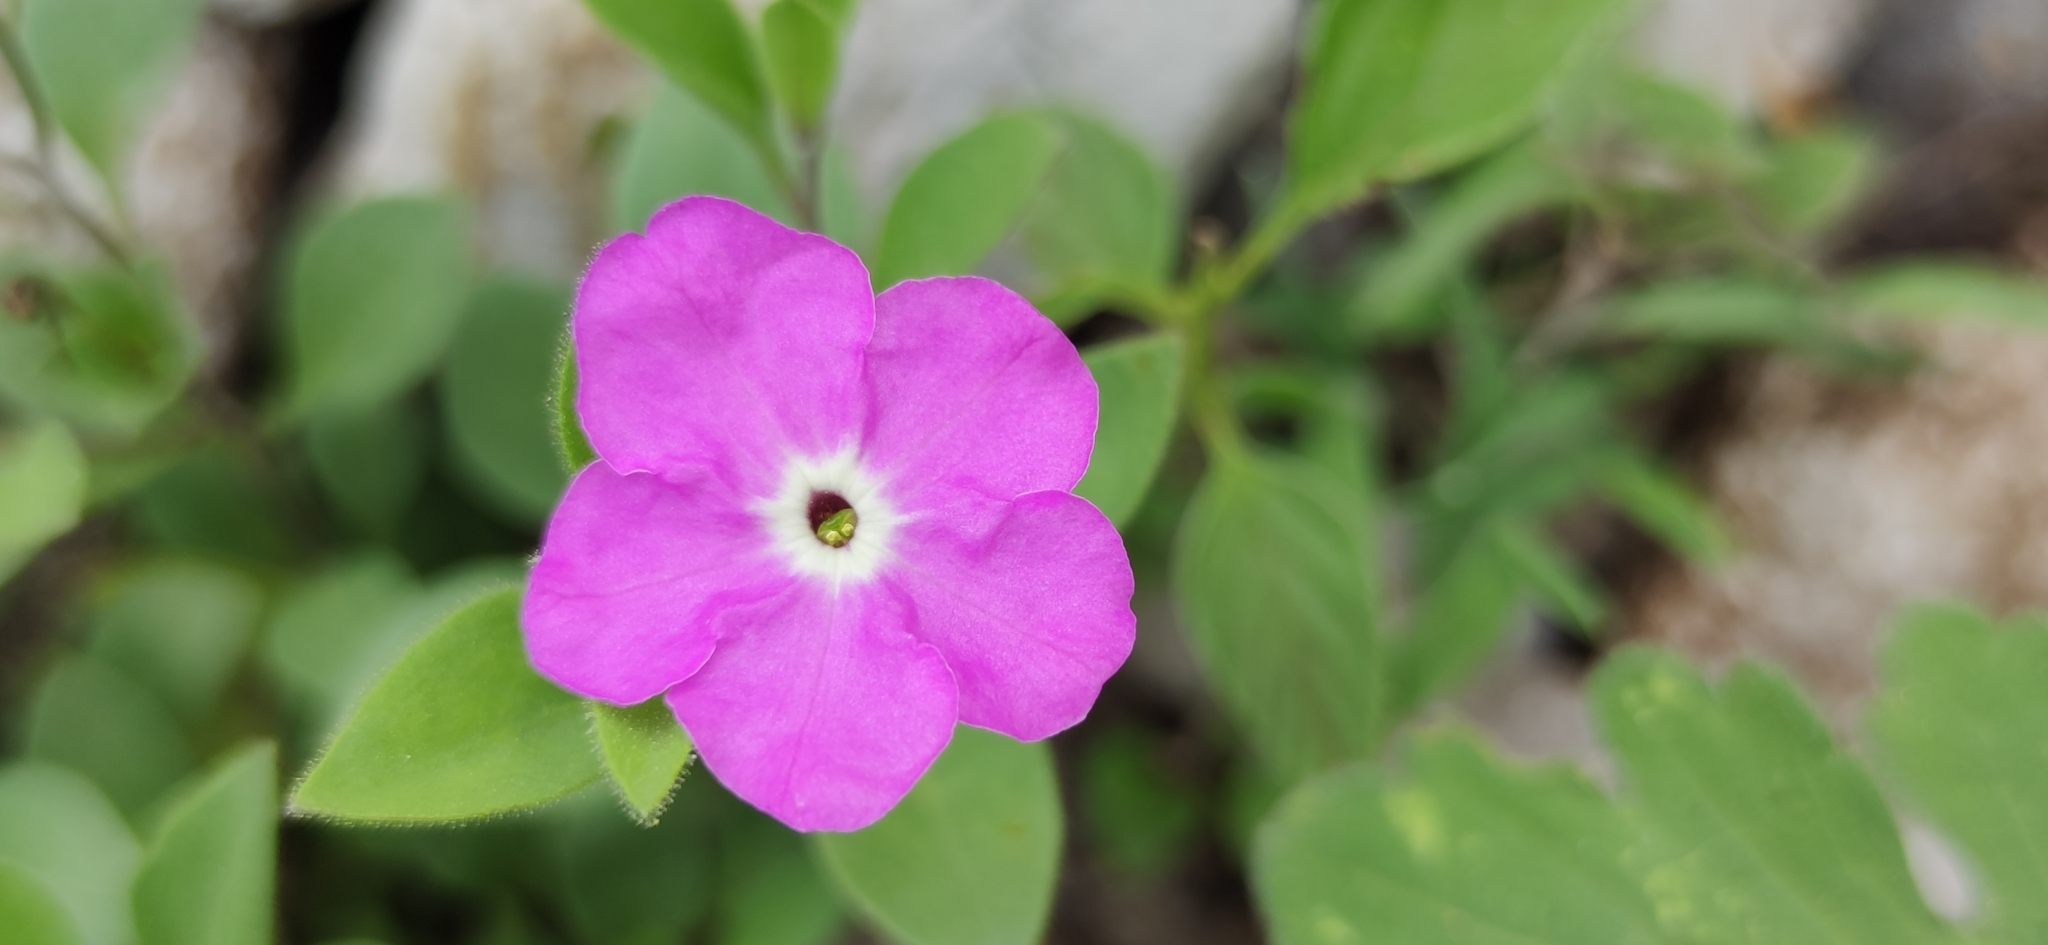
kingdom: Plantae
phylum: Tracheophyta
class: Magnoliopsida
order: Solanales
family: Solanaceae
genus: Hunzikeria
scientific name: Hunzikeria texana
